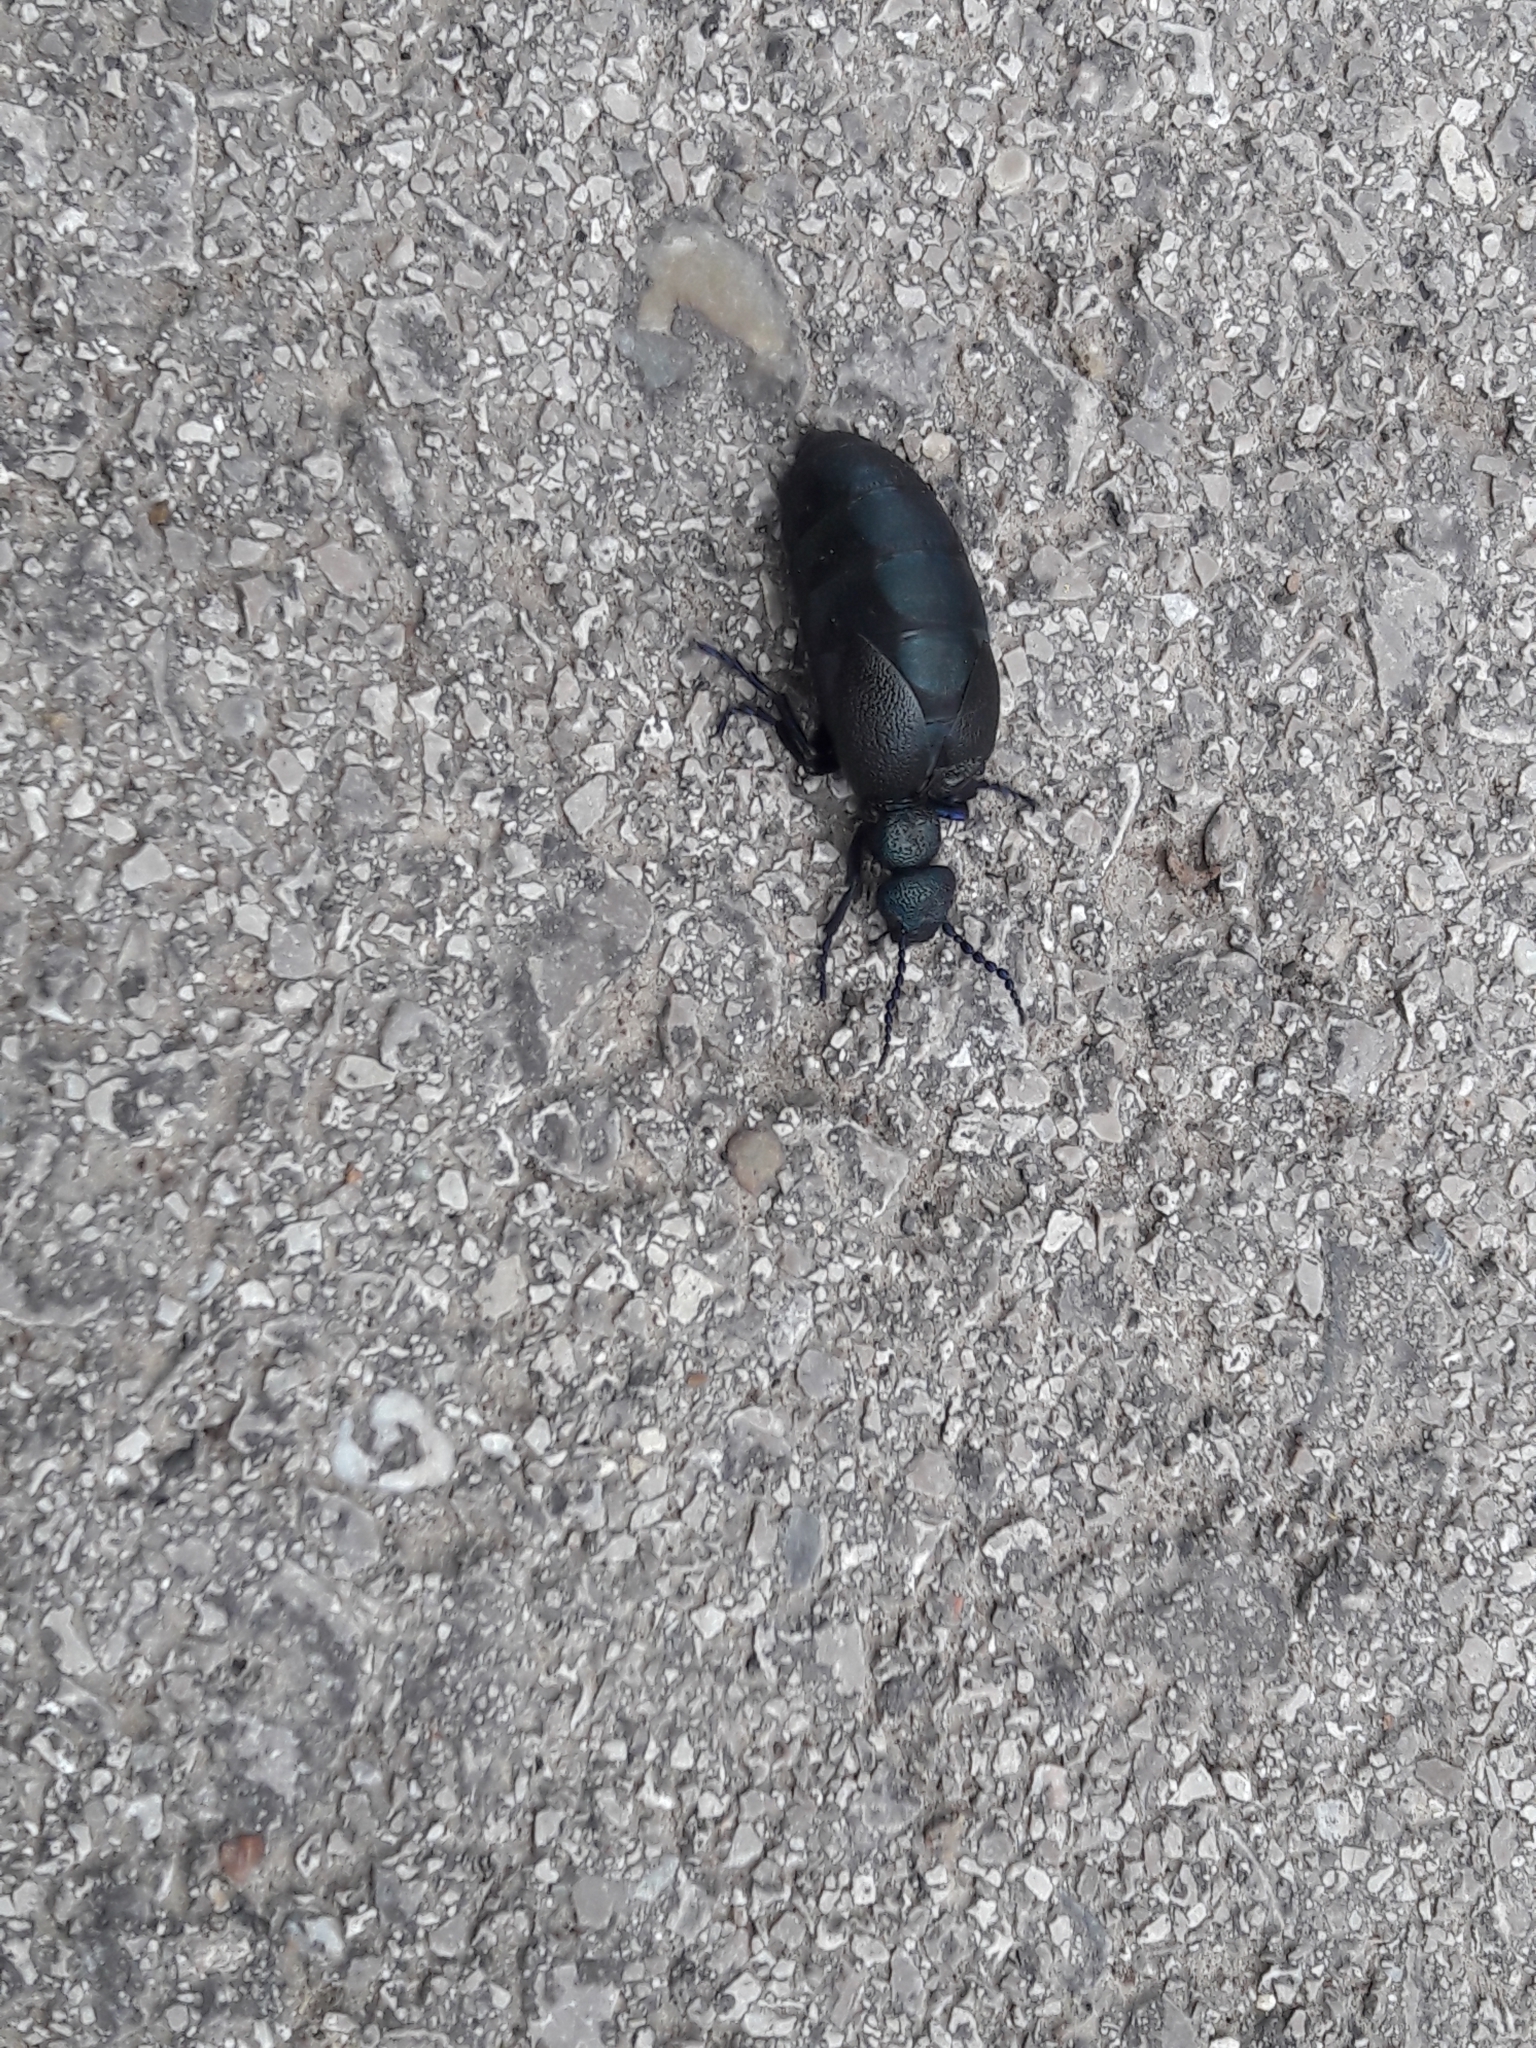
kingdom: Animalia
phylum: Arthropoda
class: Insecta
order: Coleoptera
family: Meloidae
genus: Meloe
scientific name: Meloe proscarabaeus
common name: Black oil-beetle
